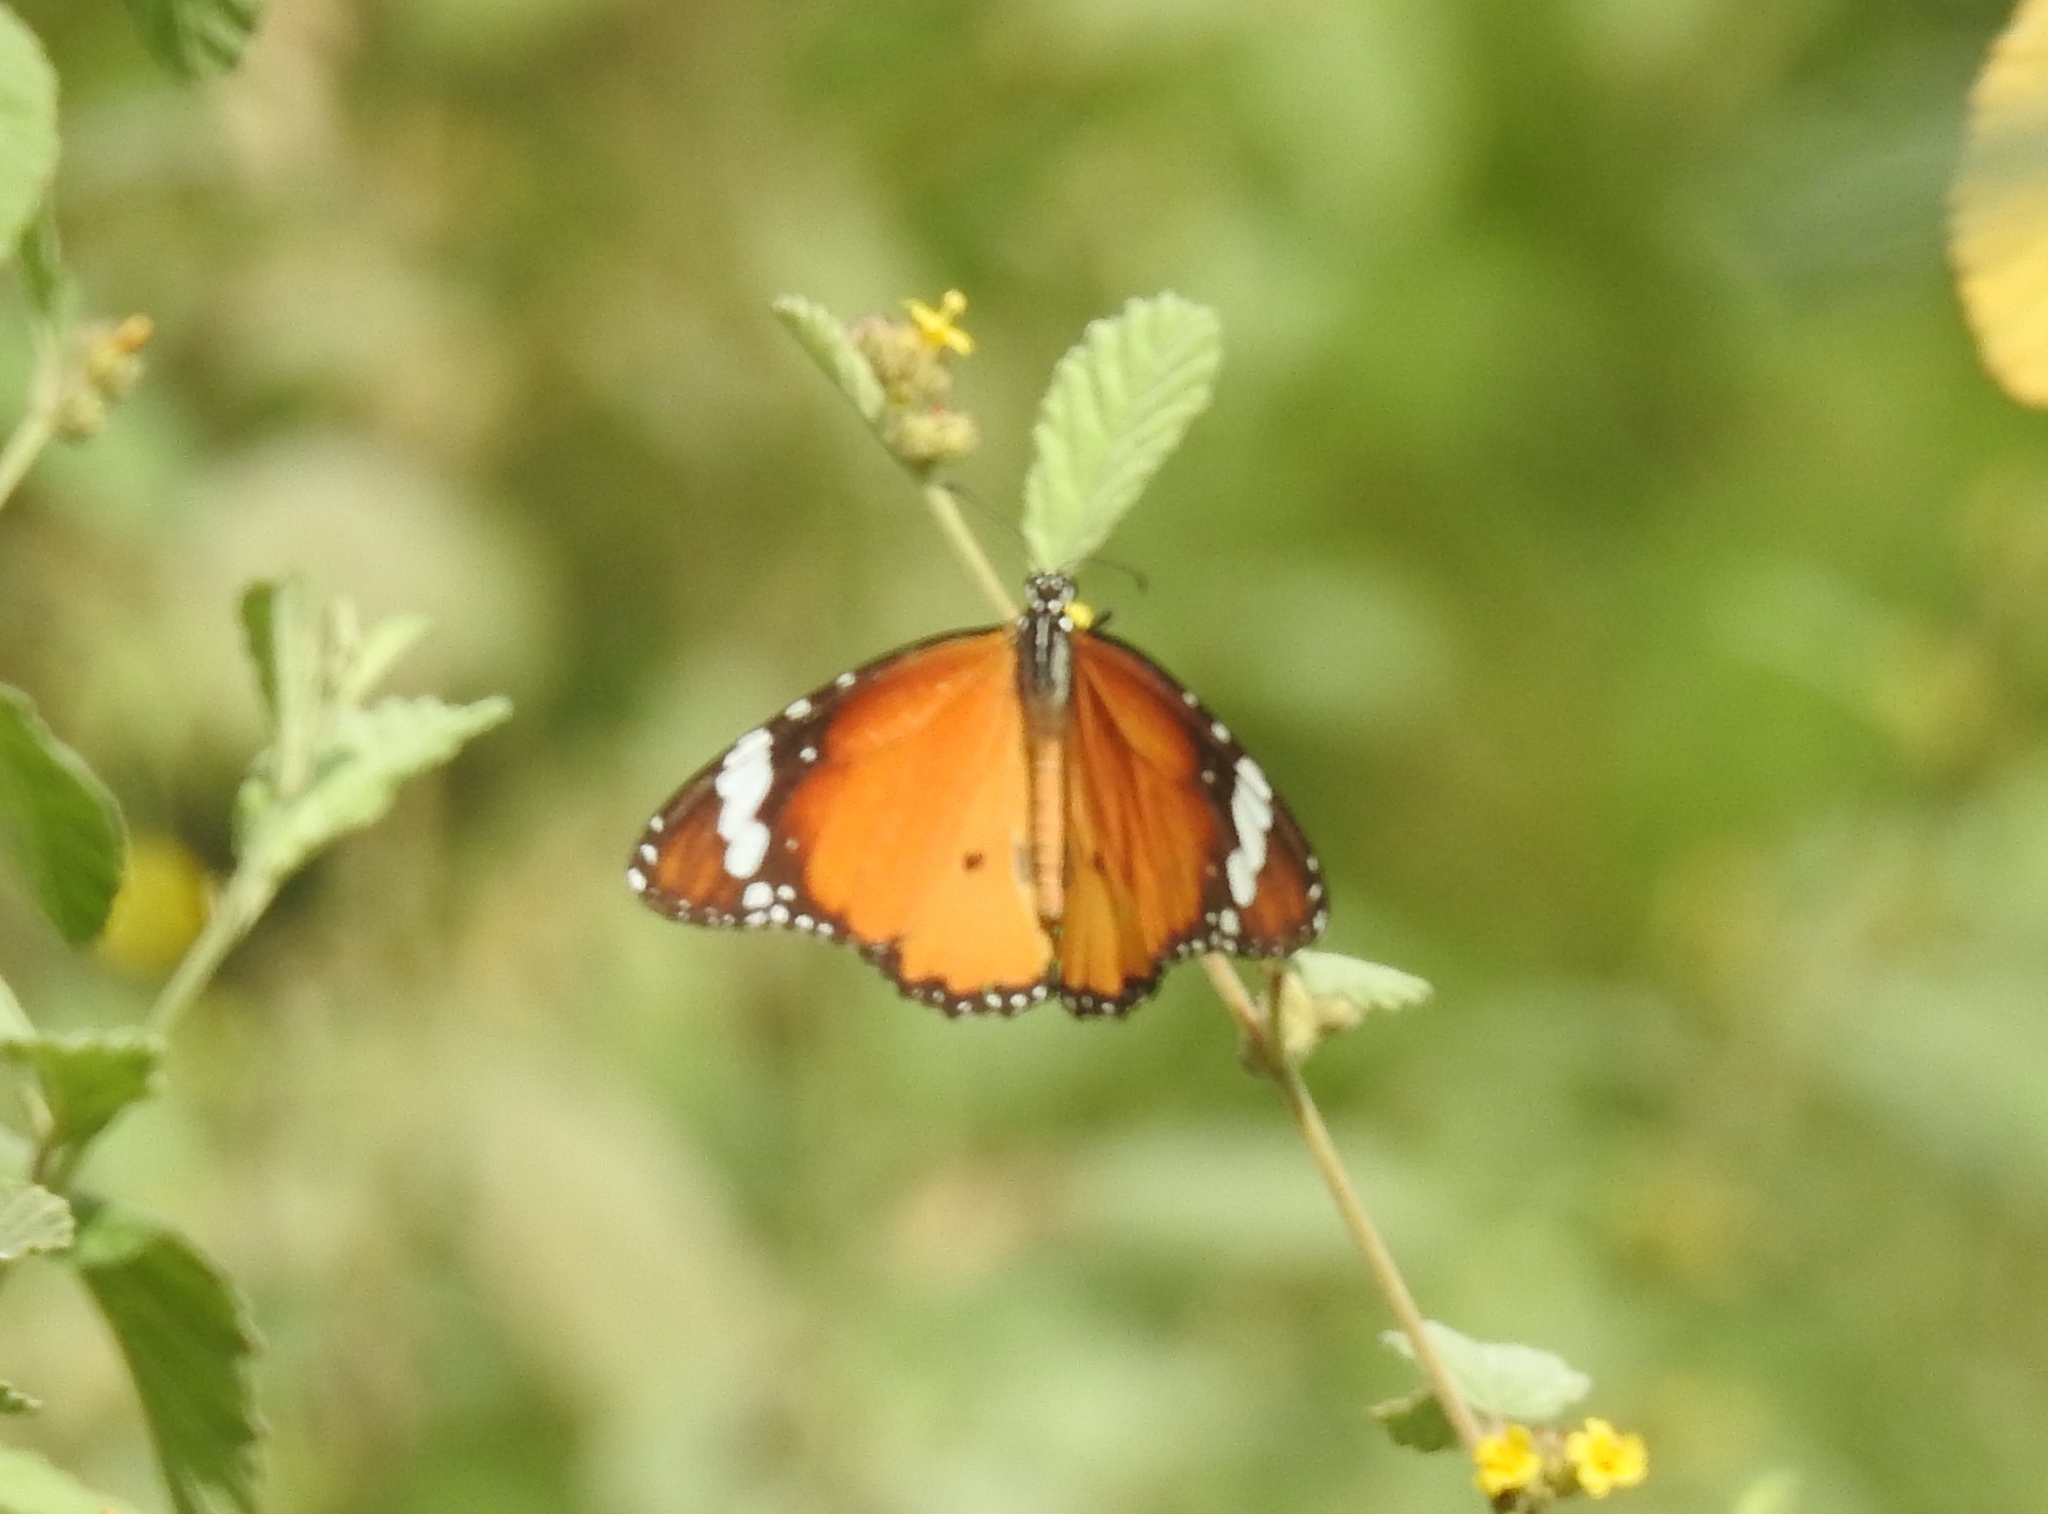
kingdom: Animalia
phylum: Arthropoda
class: Insecta
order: Lepidoptera
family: Nymphalidae
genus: Danaus
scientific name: Danaus chrysippus
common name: Plain tiger
